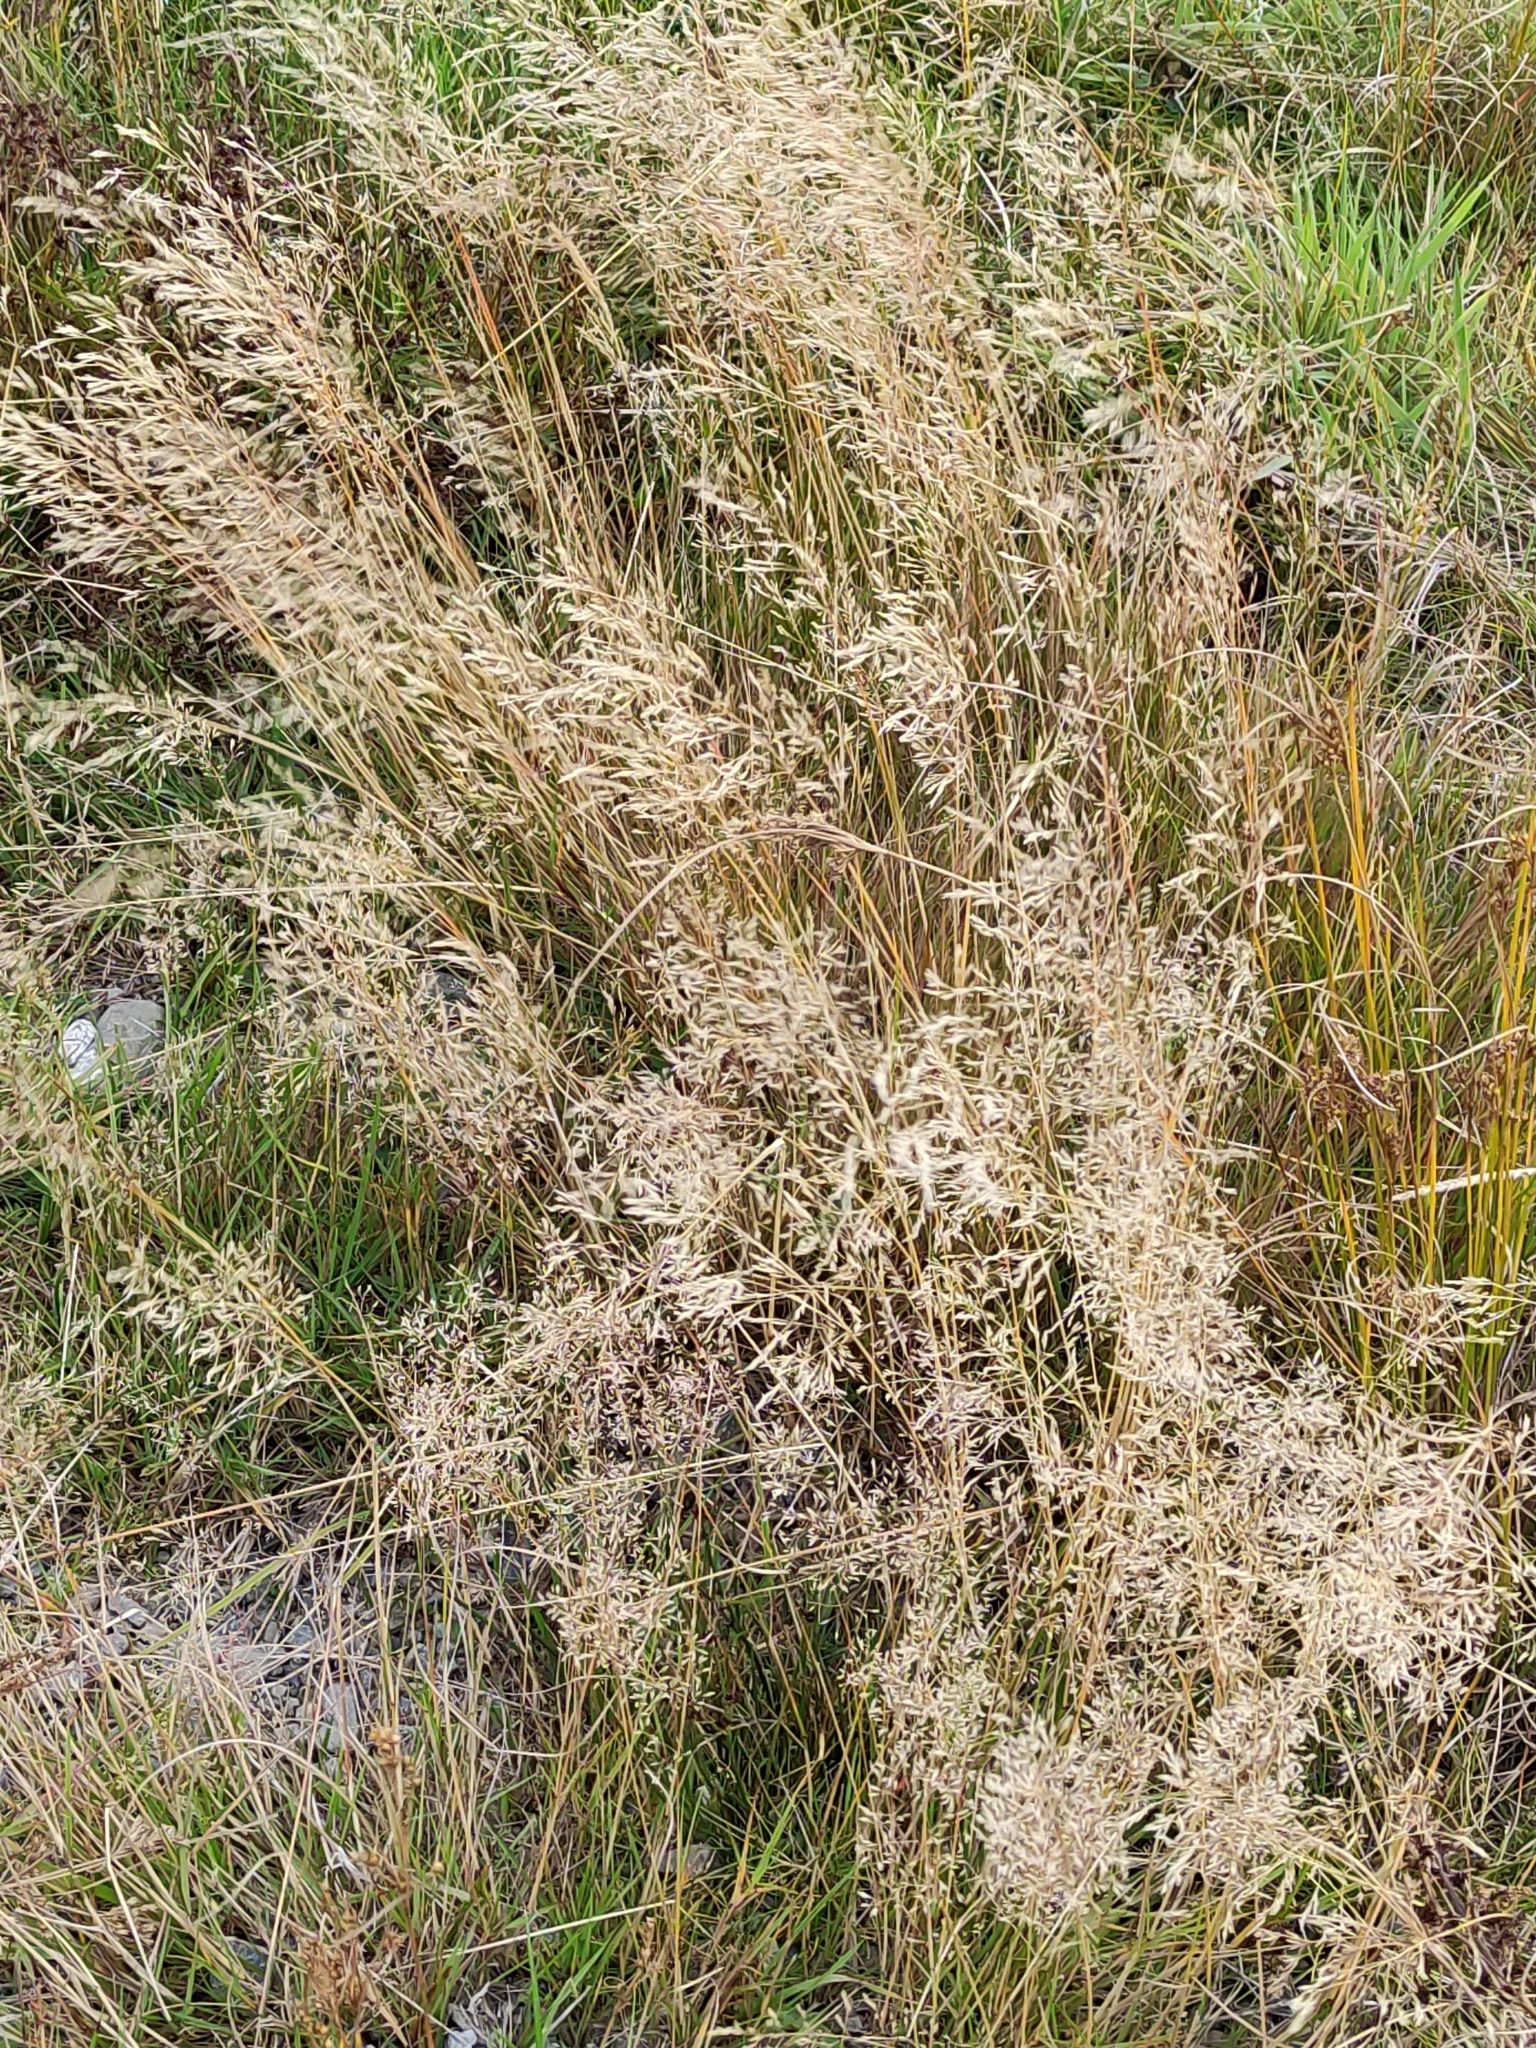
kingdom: Plantae
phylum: Tracheophyta
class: Liliopsida
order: Poales
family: Poaceae
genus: Agrostis
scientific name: Agrostis capillaris
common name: Colonial bentgrass
